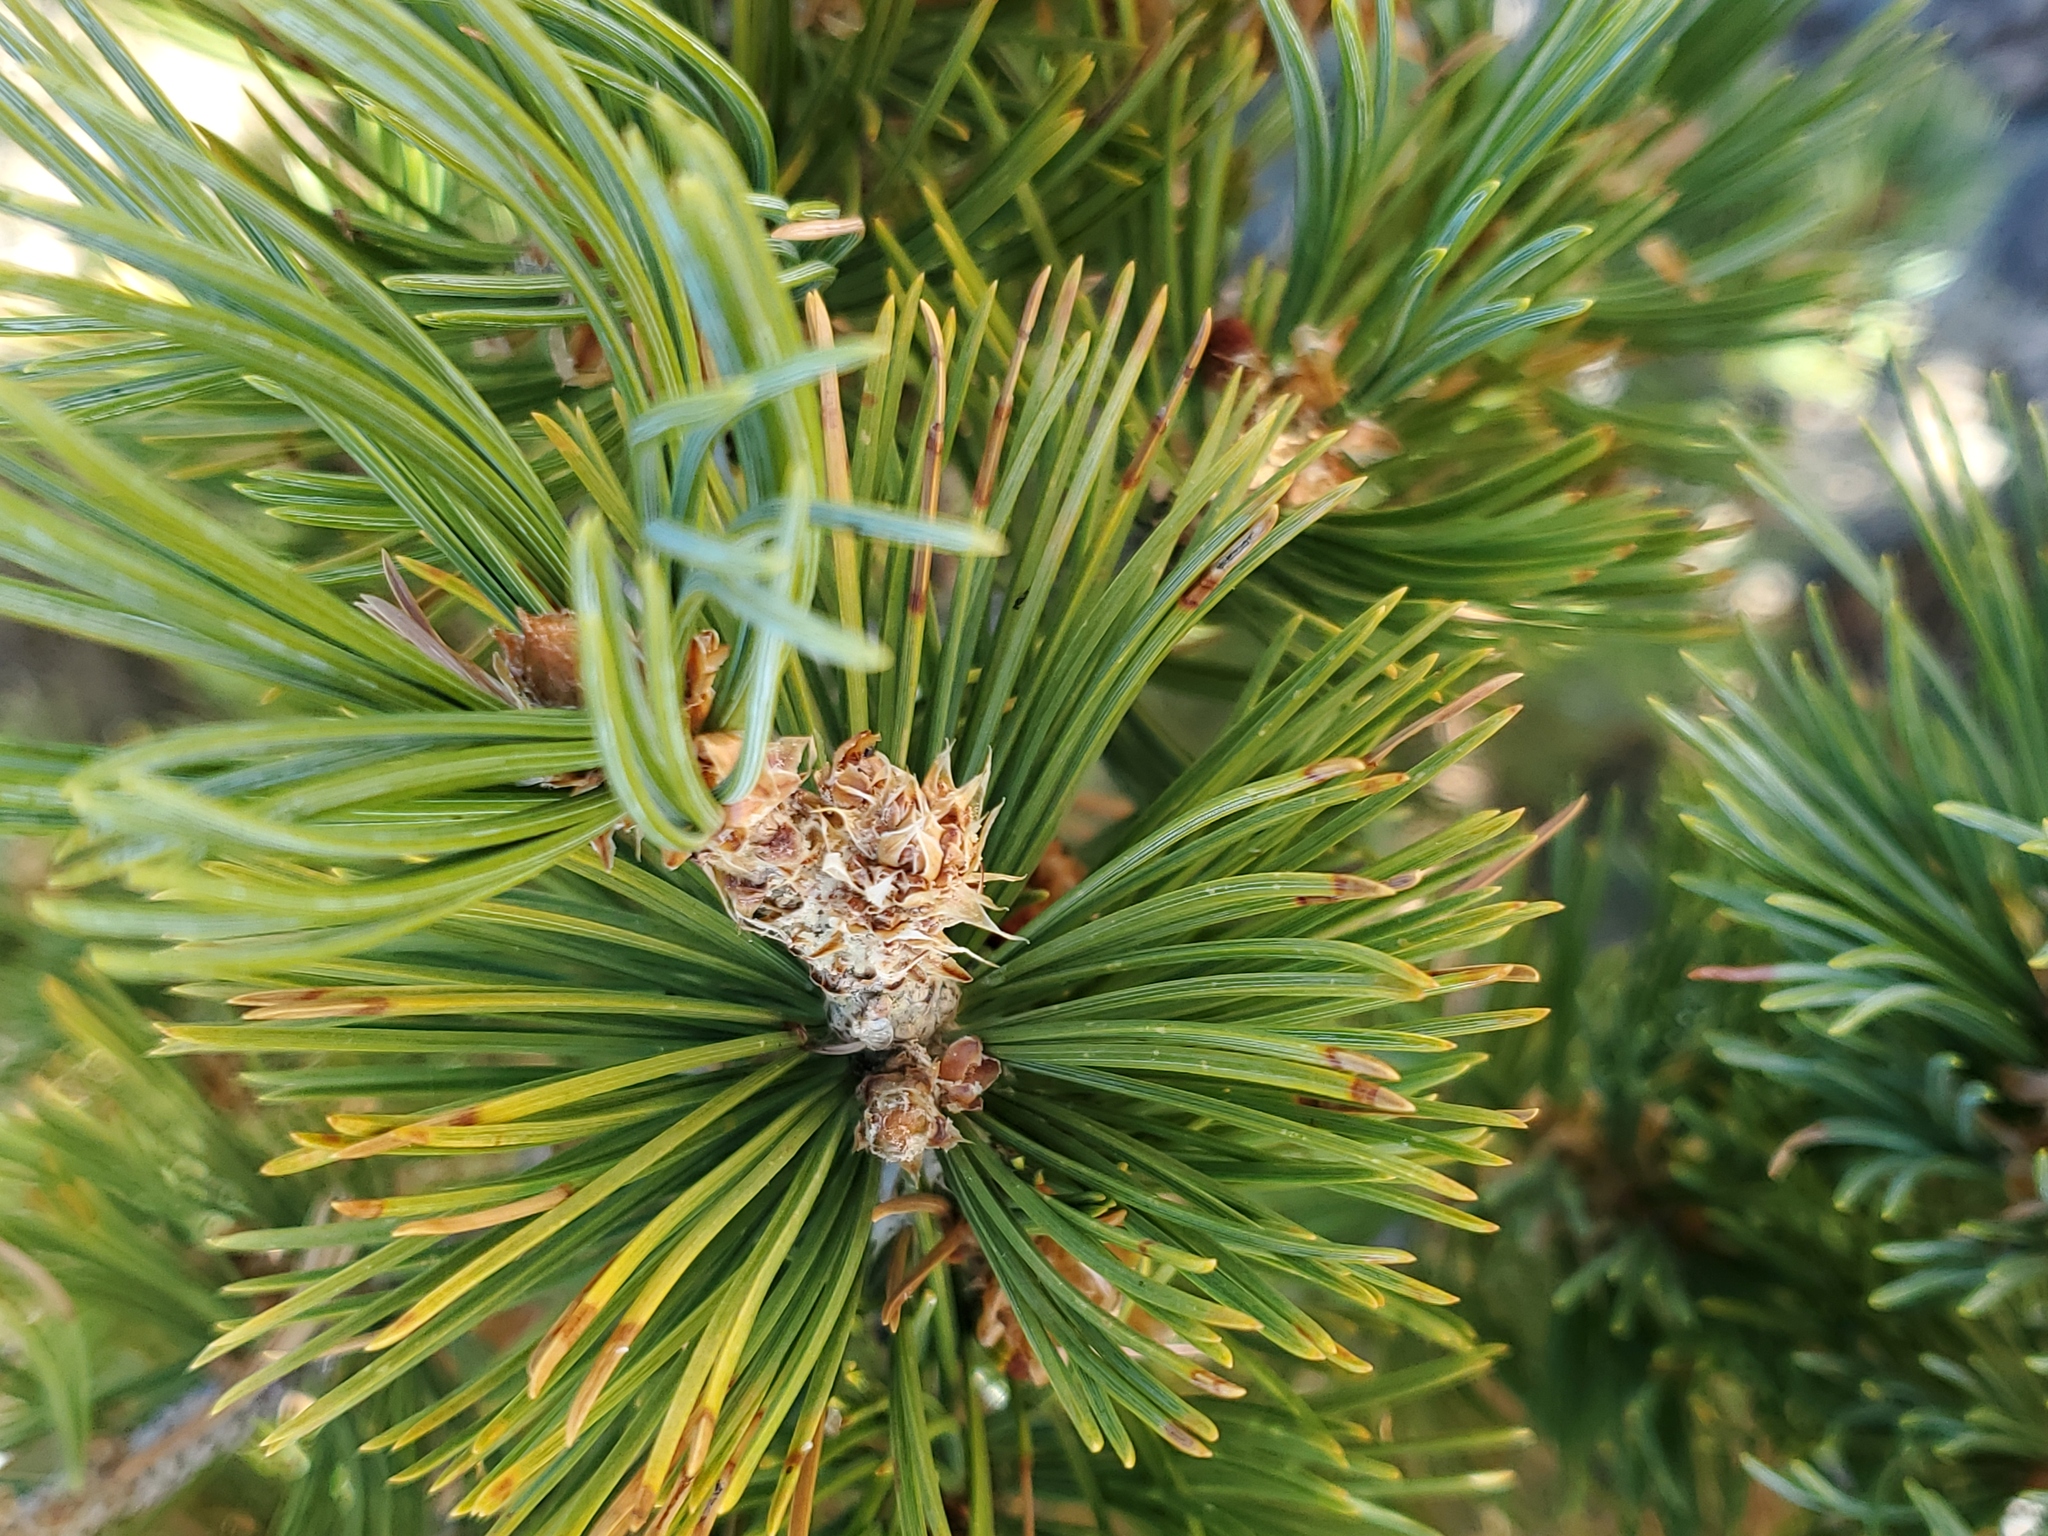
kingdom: Plantae
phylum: Tracheophyta
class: Pinopsida
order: Pinales
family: Pinaceae
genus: Pinus
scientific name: Pinus flexilis
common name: Limber pine
